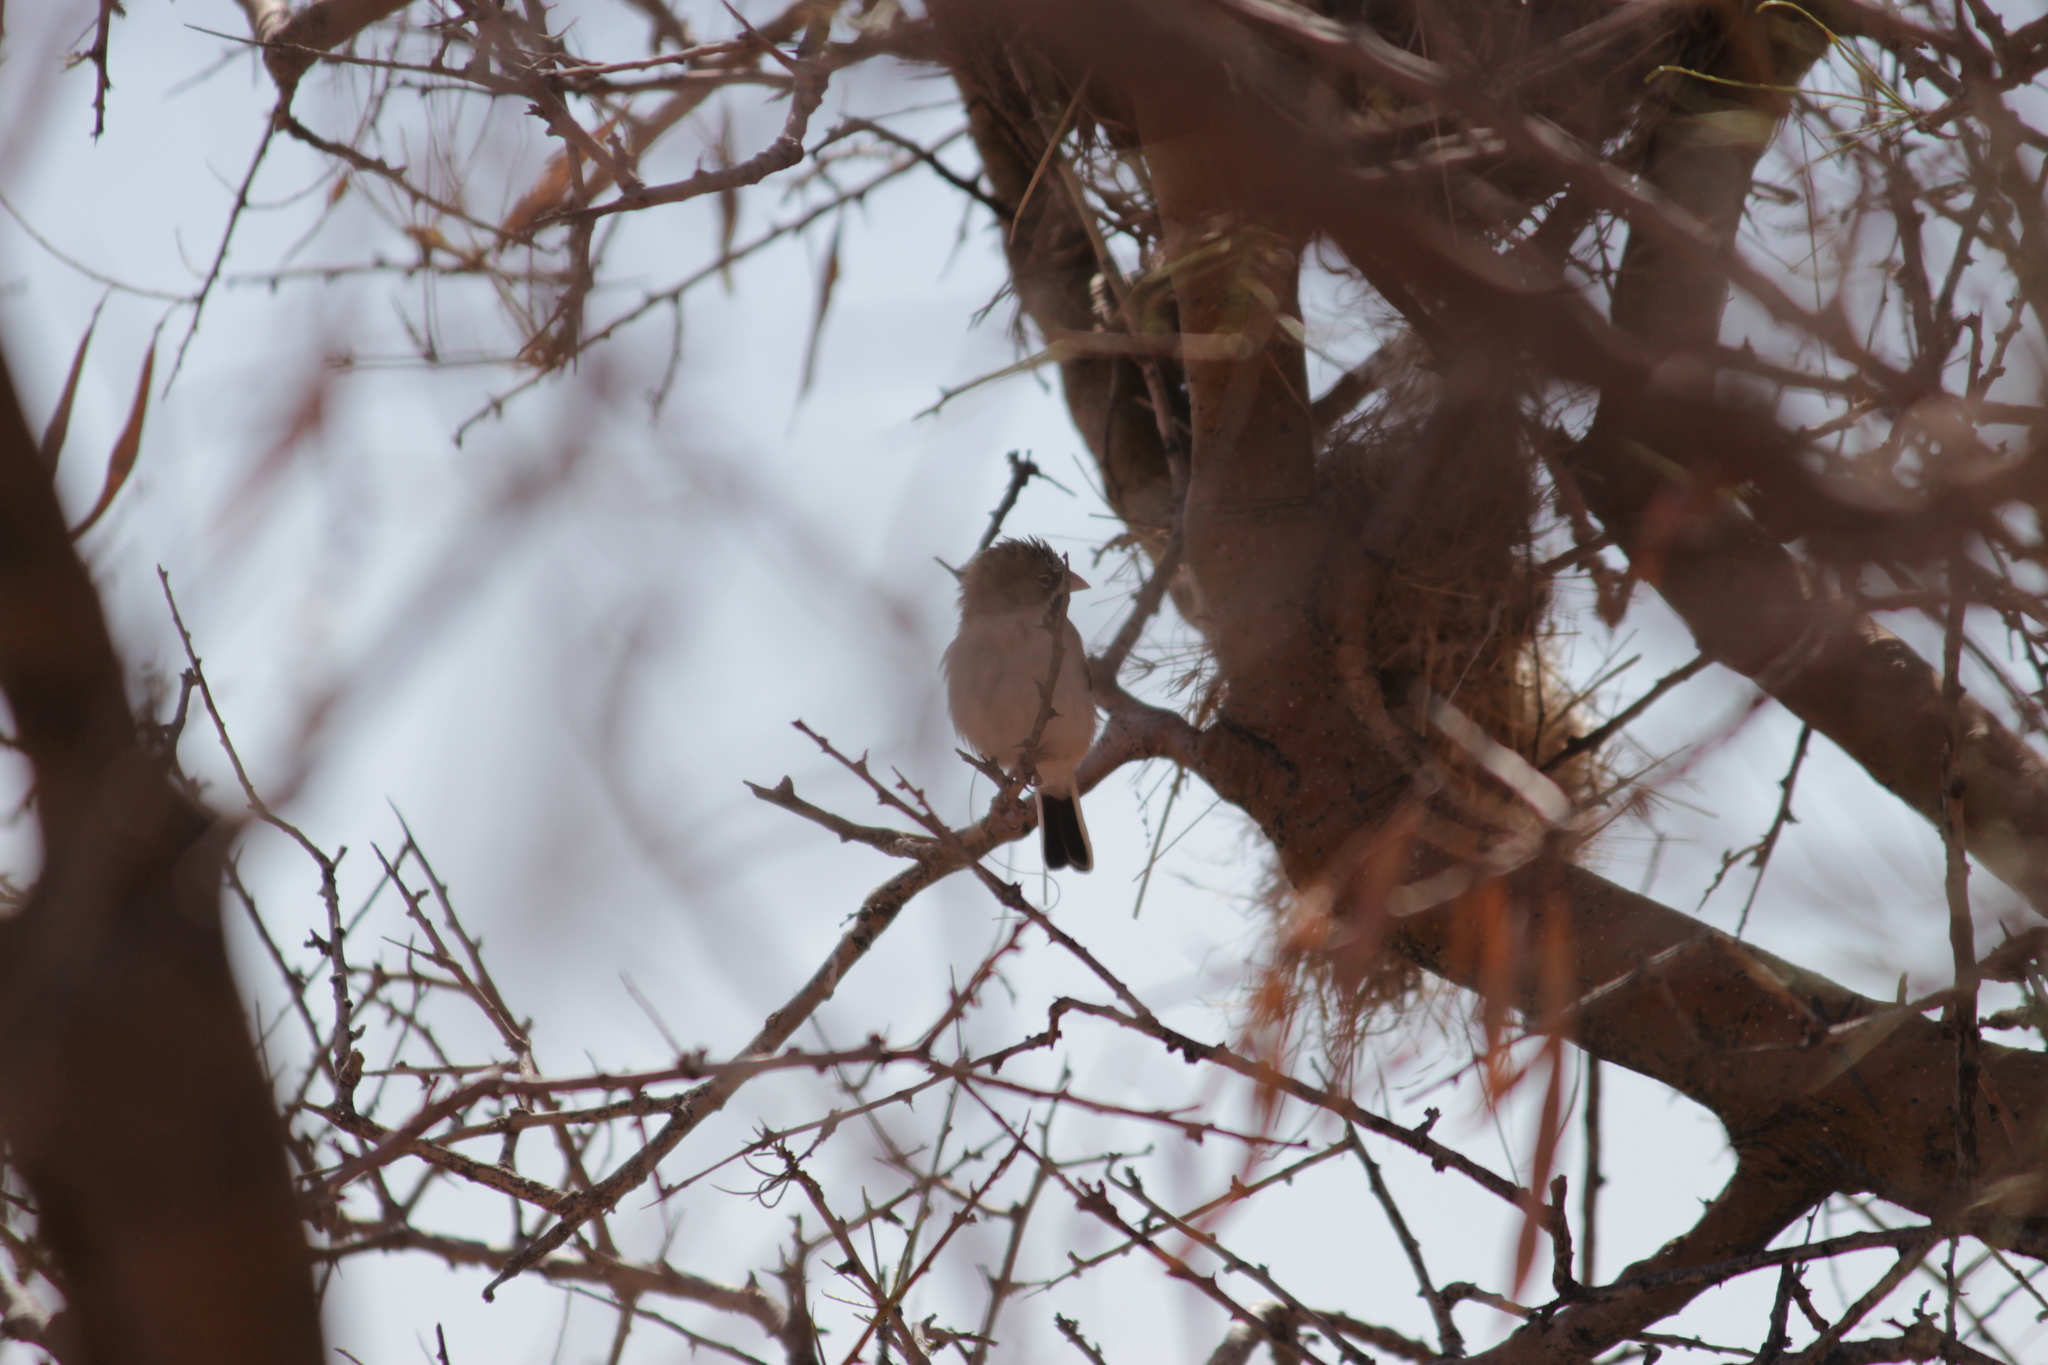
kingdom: Animalia
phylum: Chordata
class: Aves
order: Passeriformes
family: Ploceidae
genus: Sporopipes
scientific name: Sporopipes squamifrons
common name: Scaly-feathered weaver
